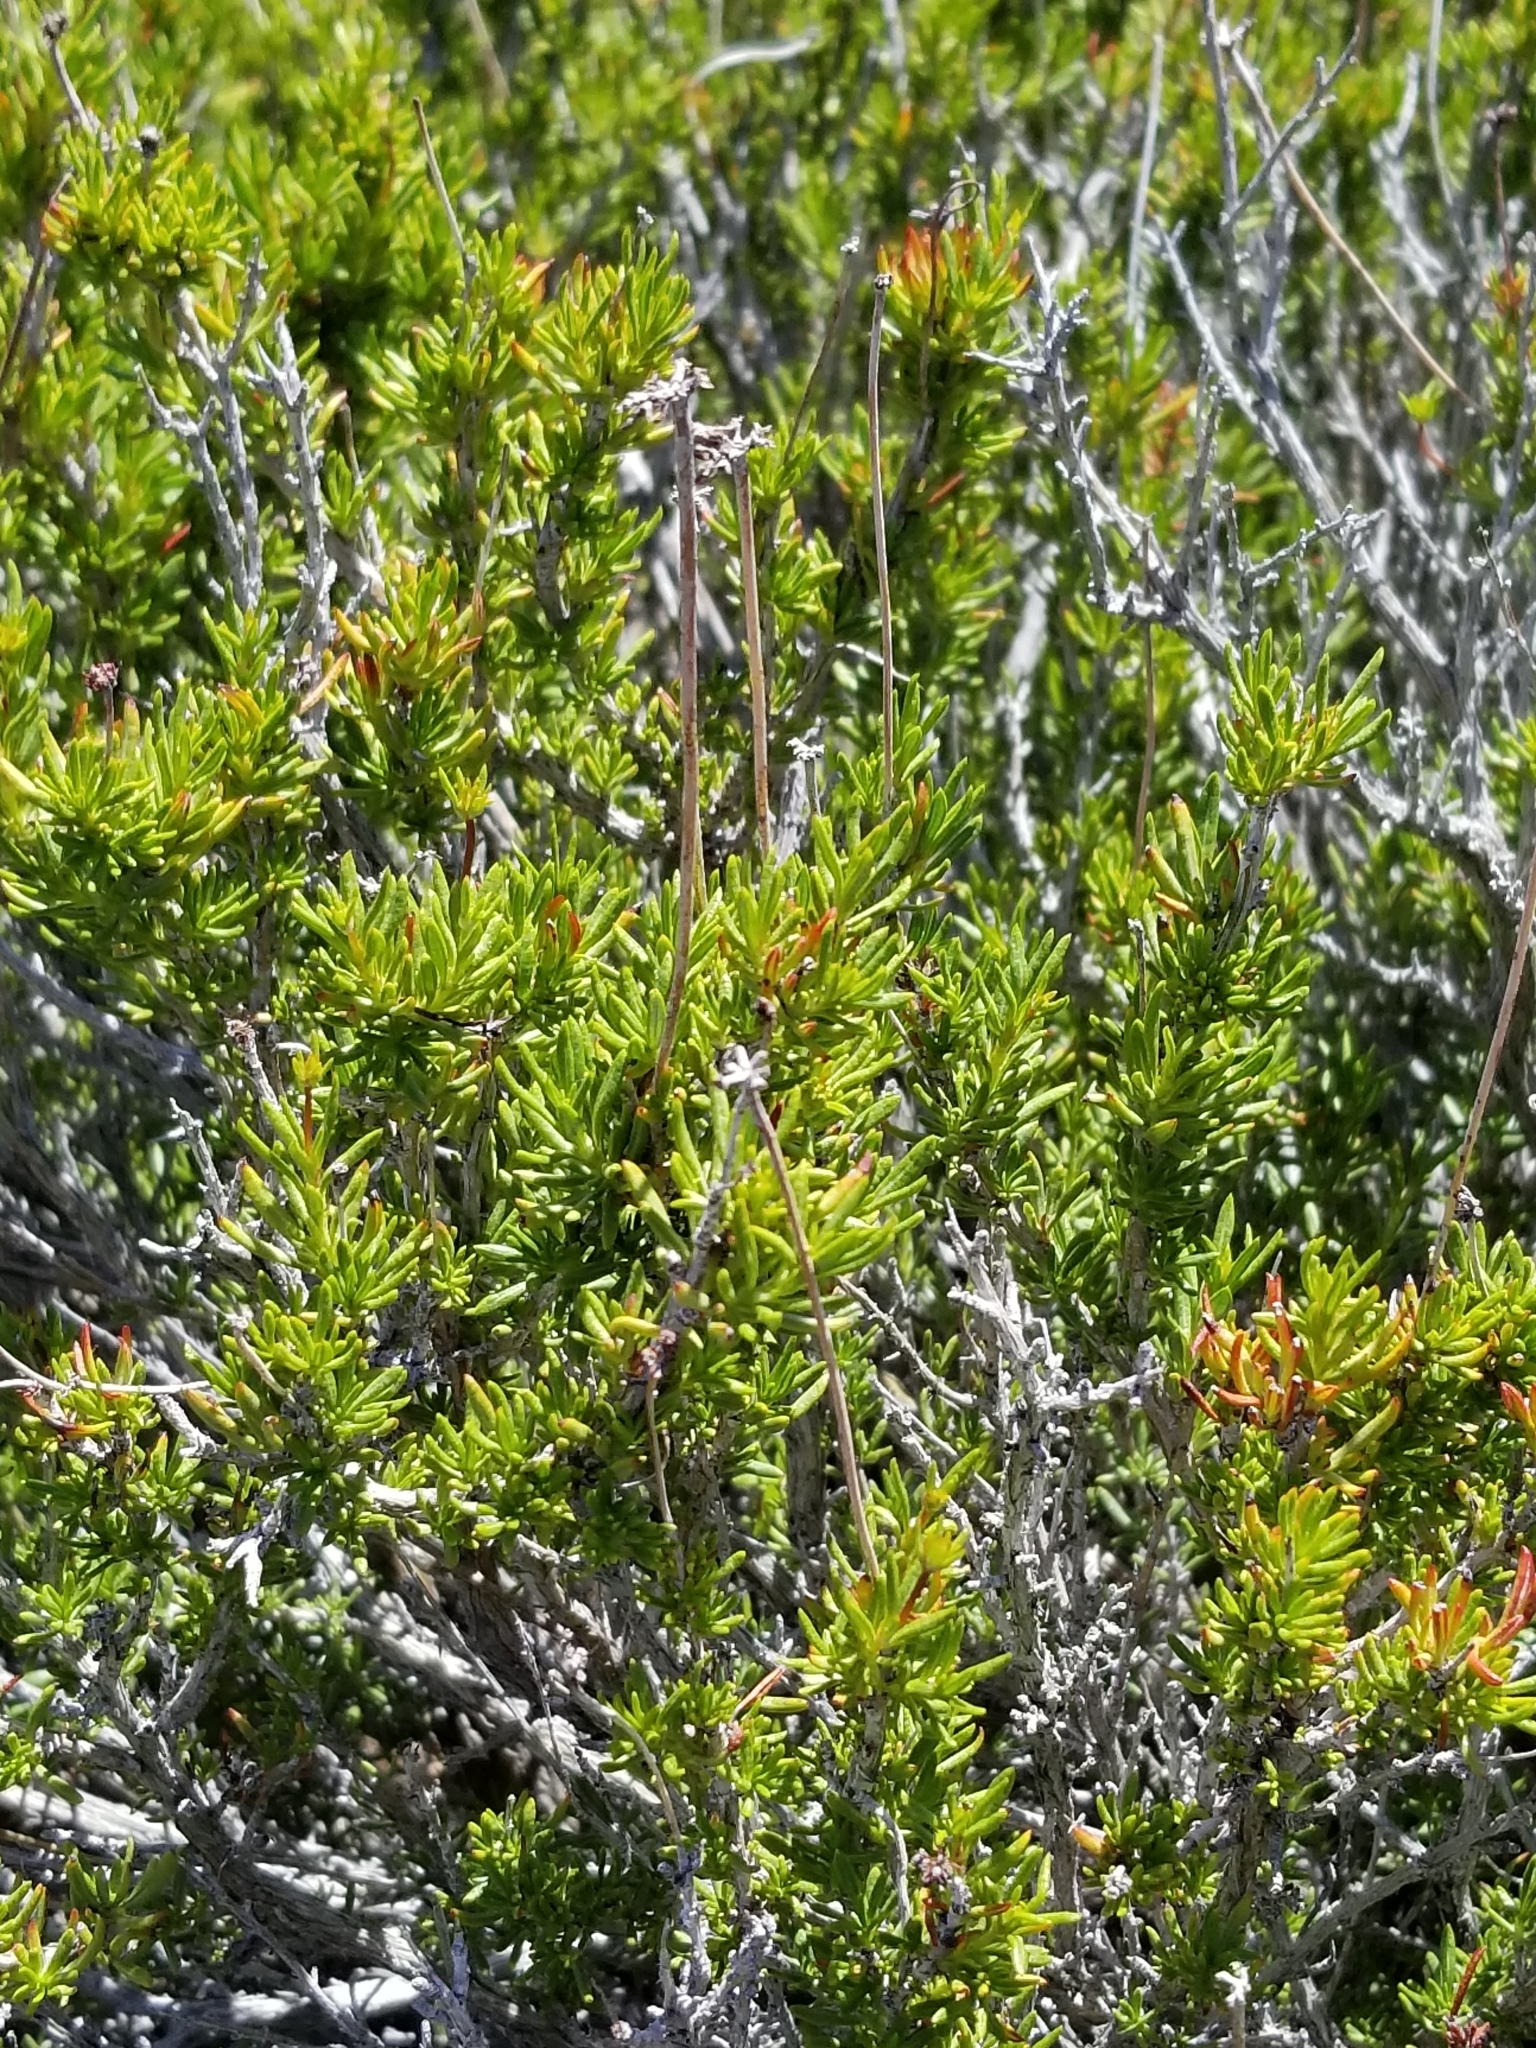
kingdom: Plantae
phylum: Tracheophyta
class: Magnoliopsida
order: Caryophyllales
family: Polygonaceae
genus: Eriogonum
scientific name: Eriogonum fasciculatum
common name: California wild buckwheat
